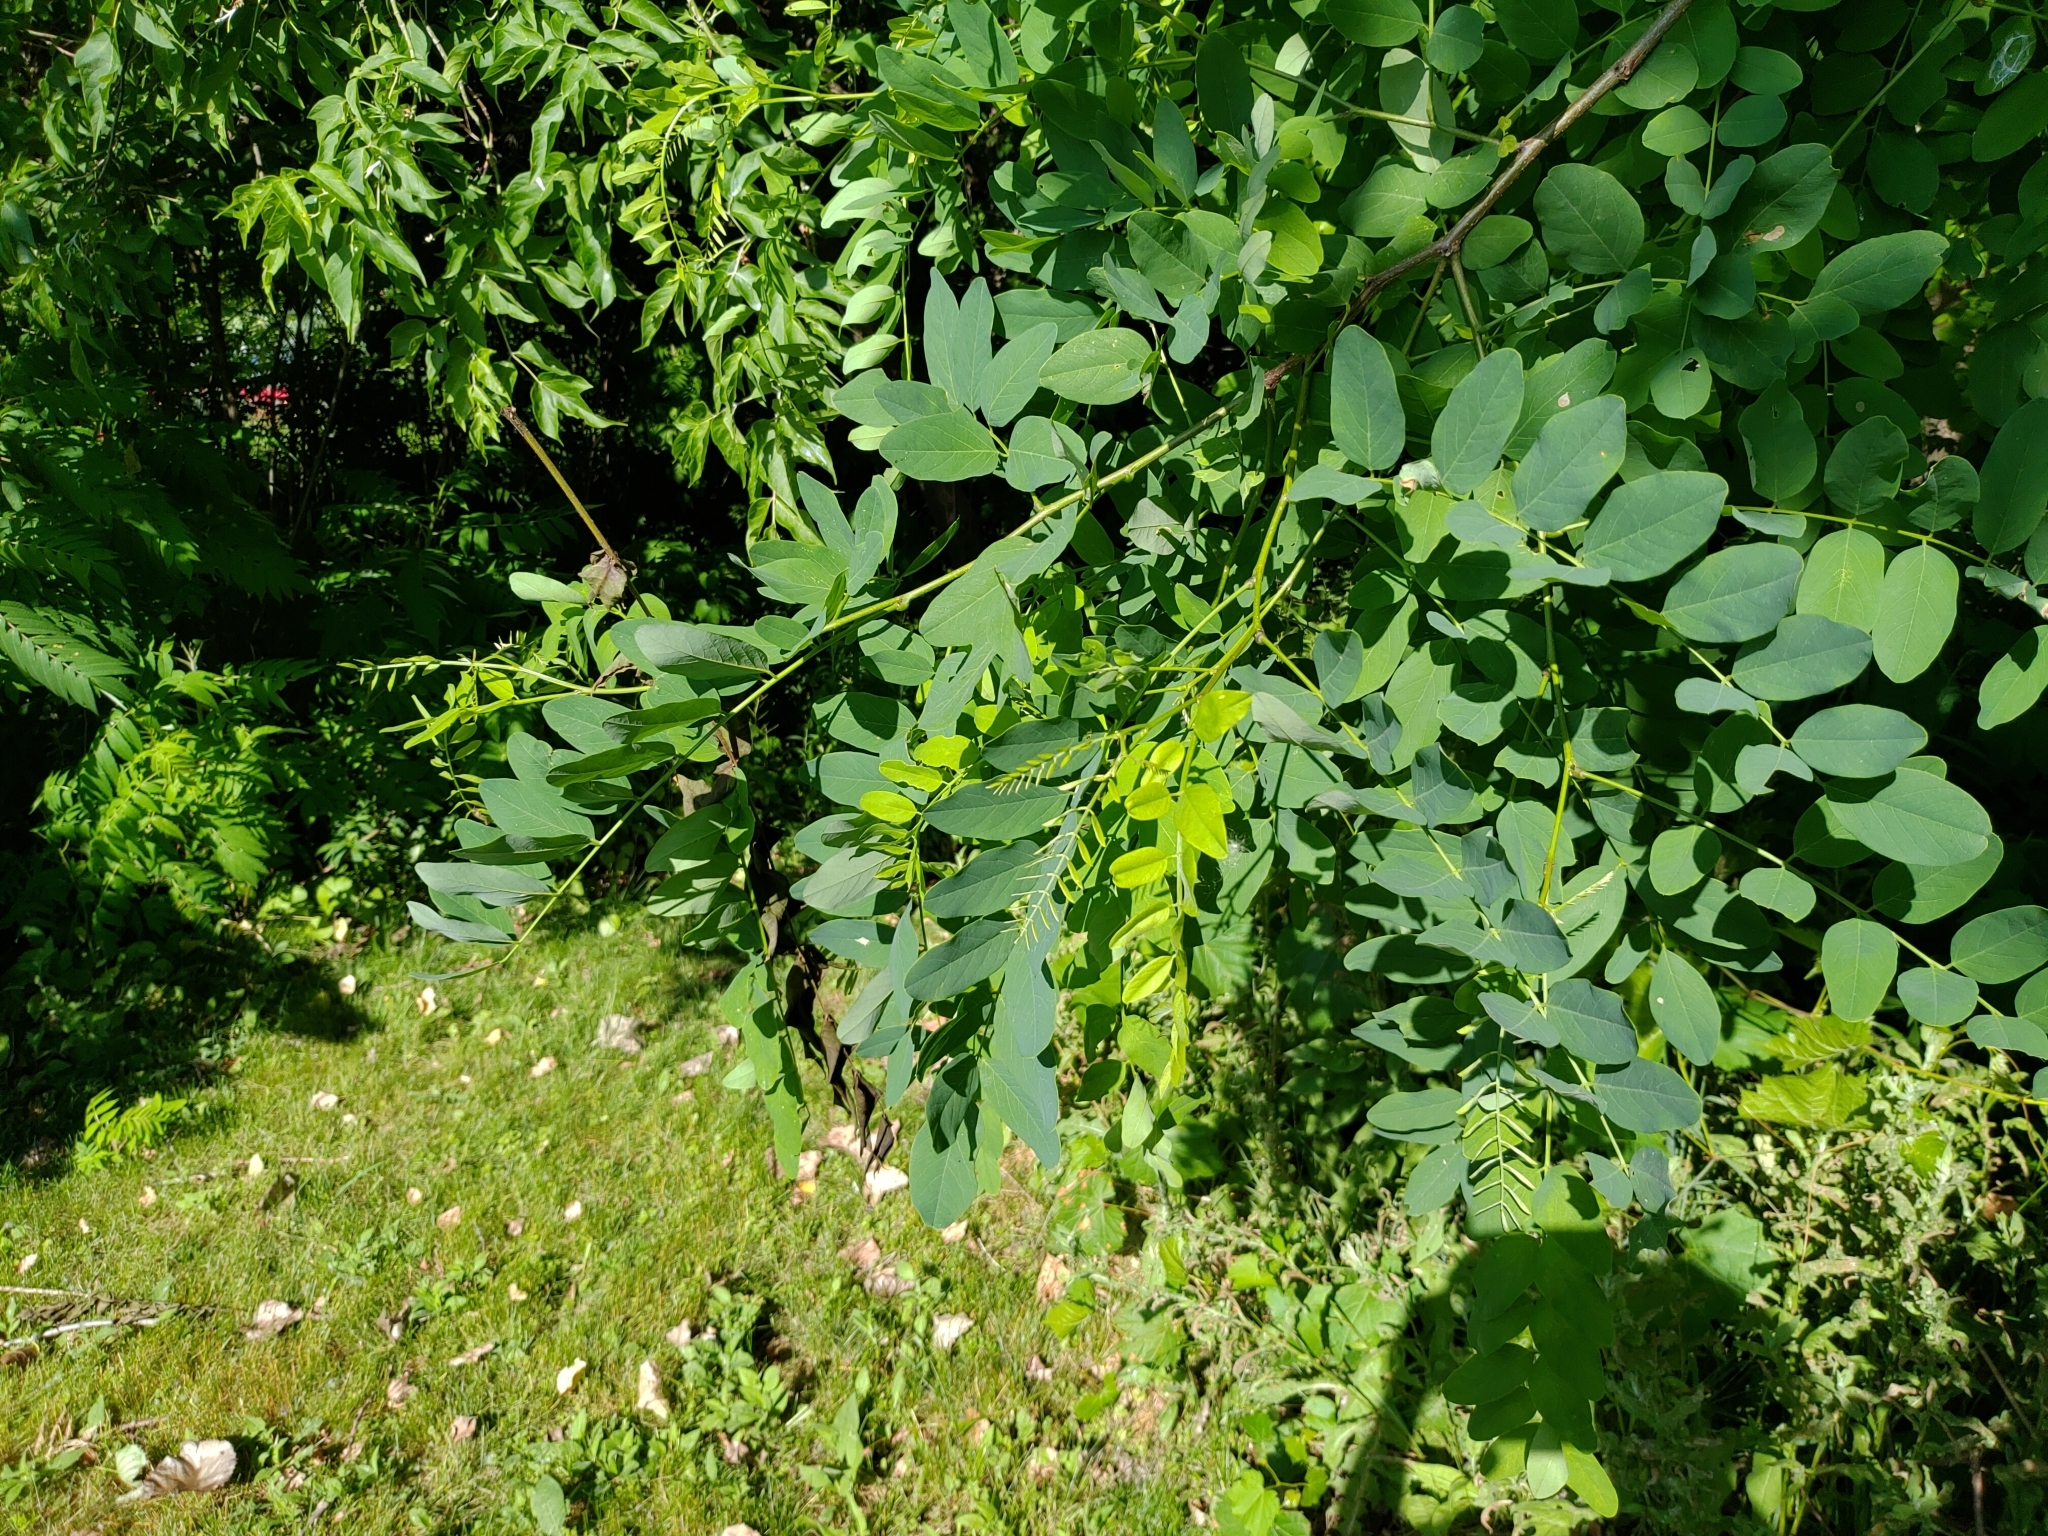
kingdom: Plantae
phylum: Tracheophyta
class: Magnoliopsida
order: Fabales
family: Fabaceae
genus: Robinia
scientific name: Robinia pseudoacacia
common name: Black locust
